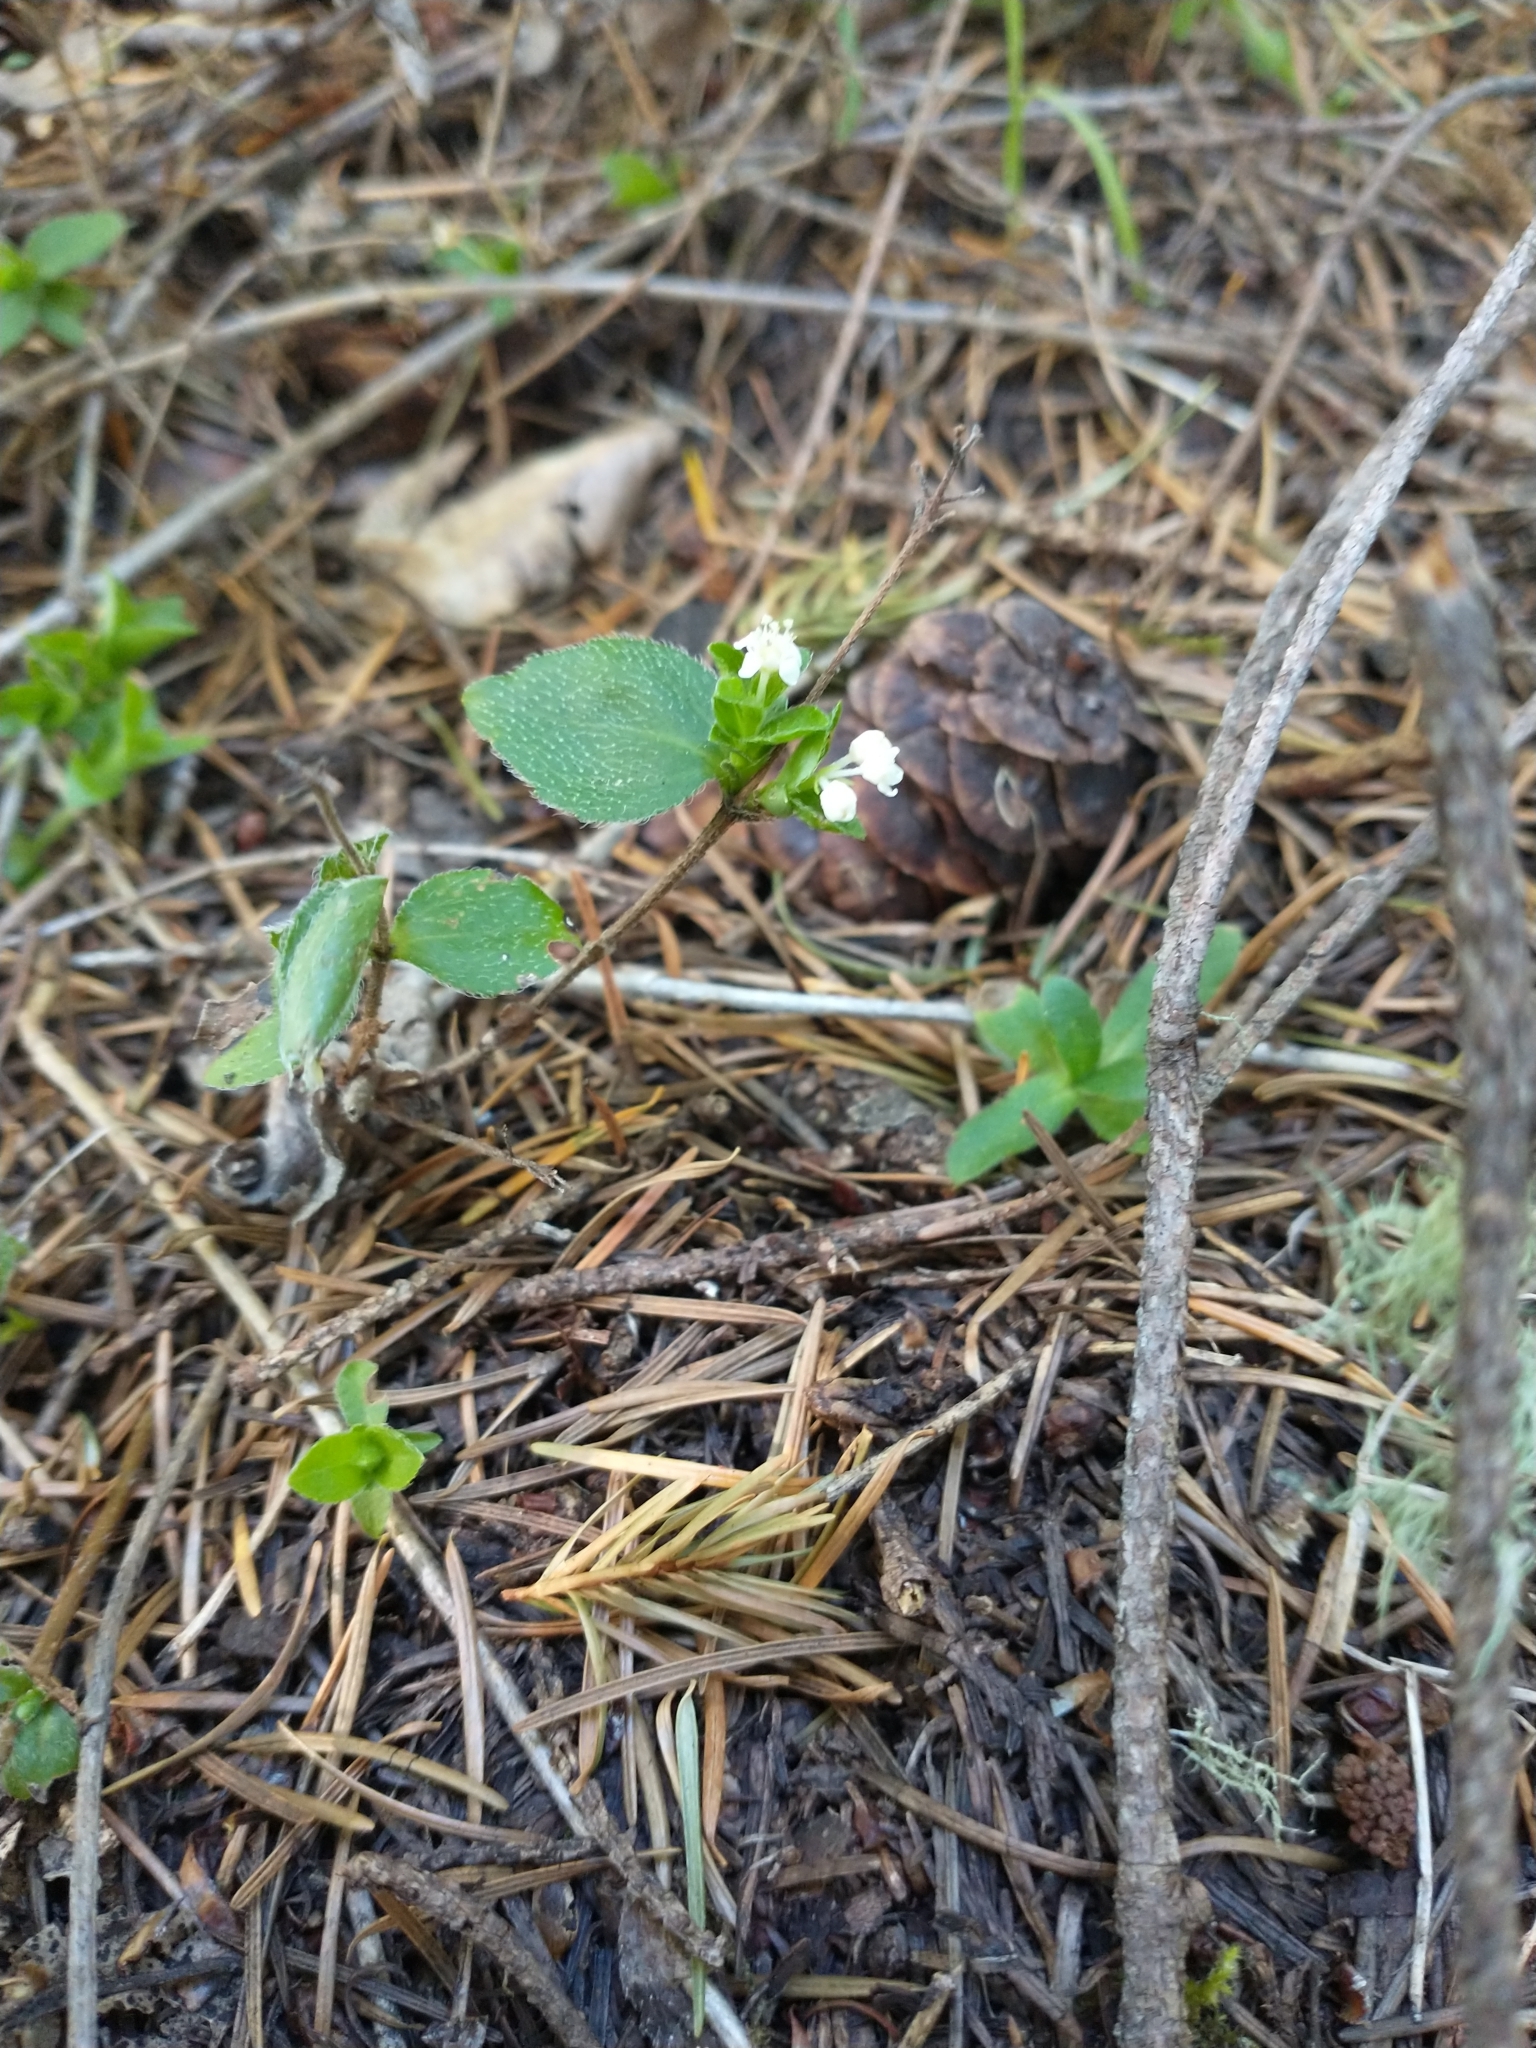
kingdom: Plantae
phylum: Tracheophyta
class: Magnoliopsida
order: Cornales
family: Hydrangeaceae
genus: Whipplea
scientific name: Whipplea modesta
